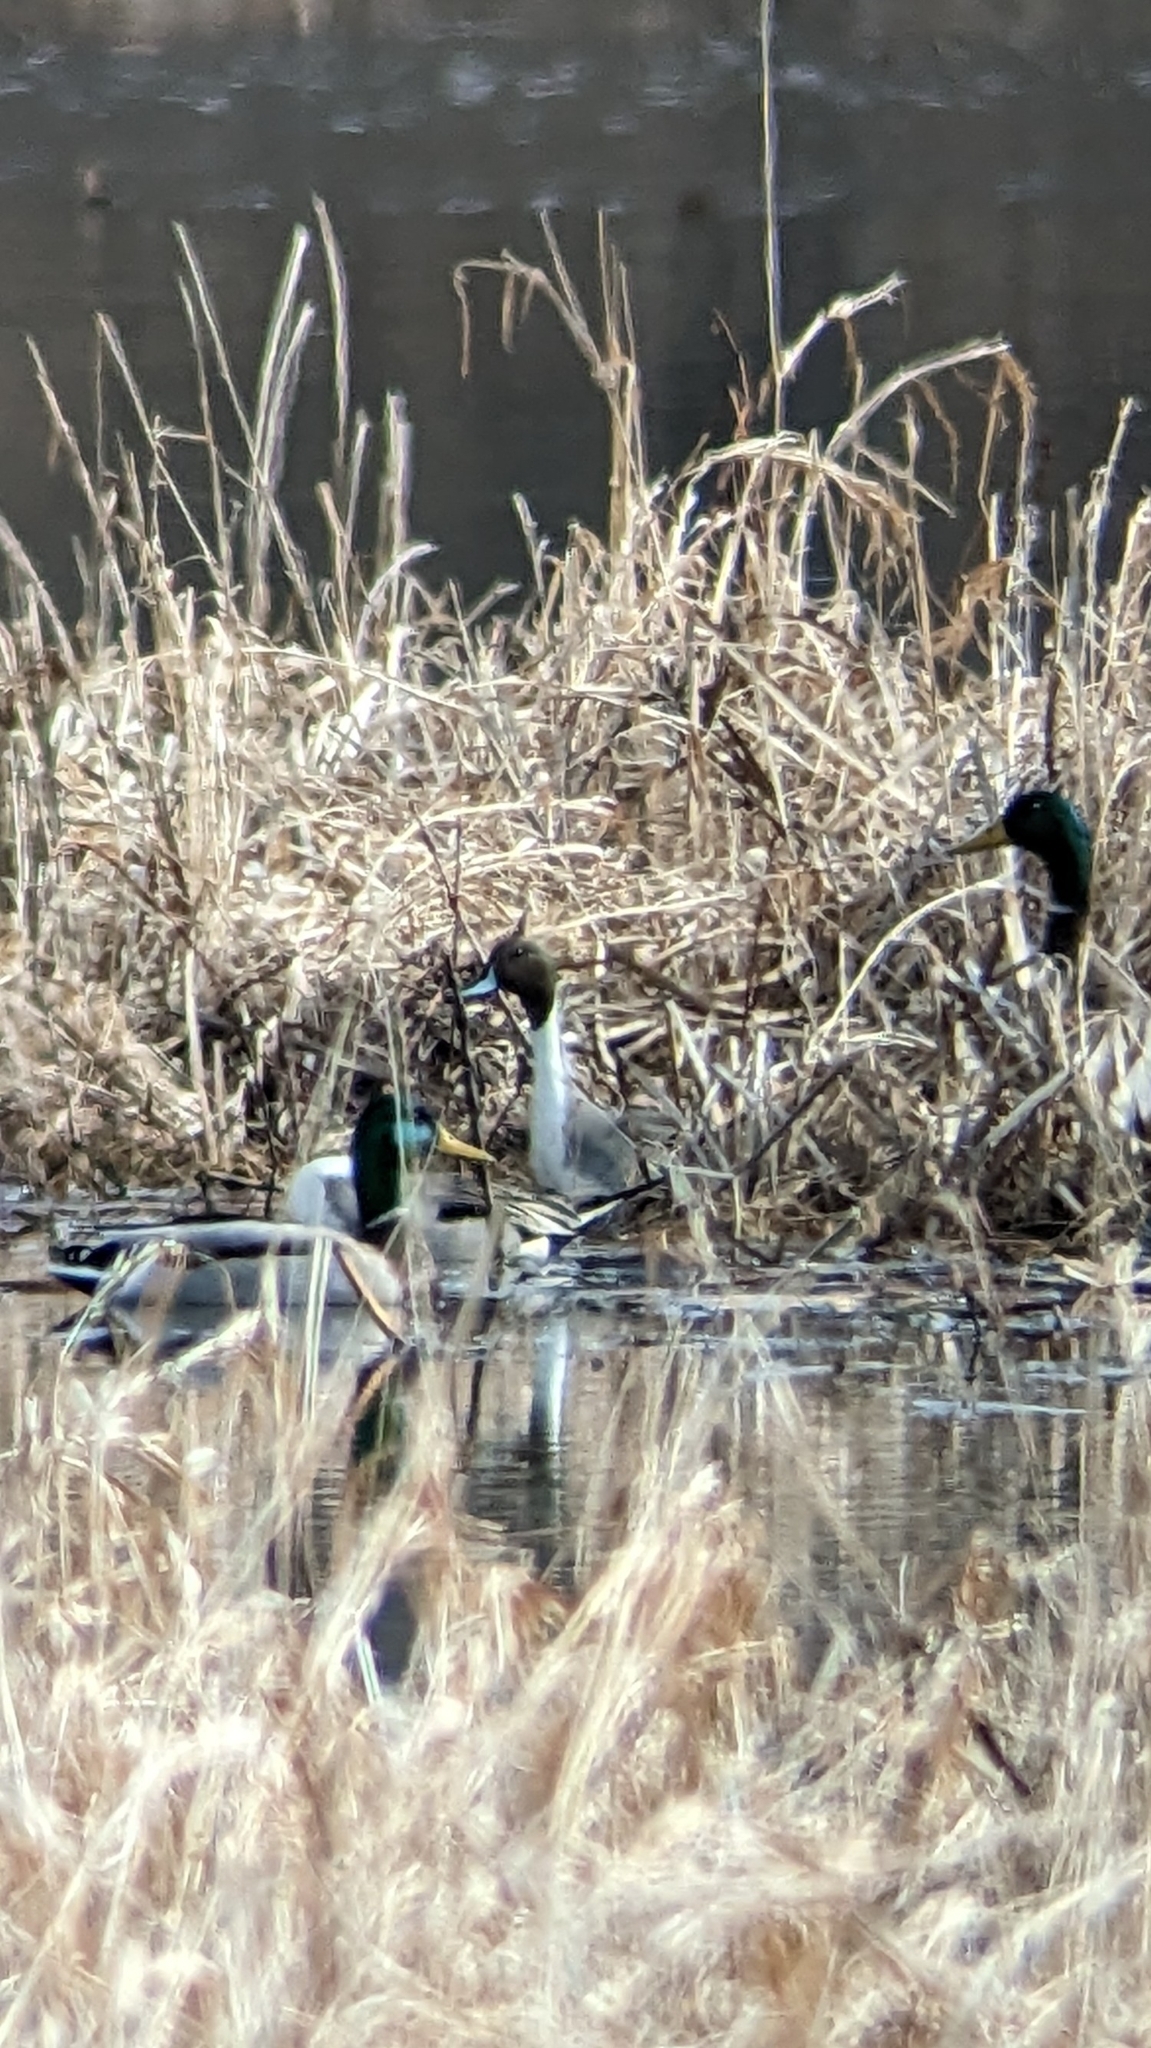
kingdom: Animalia
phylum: Chordata
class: Aves
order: Anseriformes
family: Anatidae
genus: Anas
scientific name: Anas platyrhynchos
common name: Mallard
